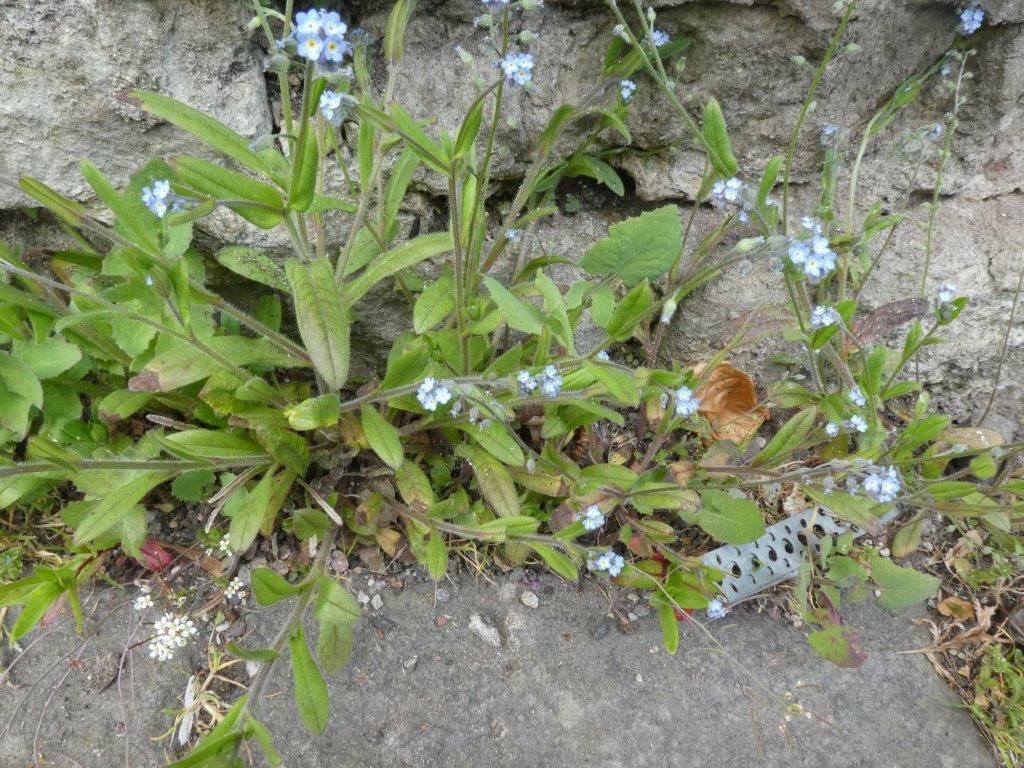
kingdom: Plantae
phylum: Tracheophyta
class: Magnoliopsida
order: Boraginales
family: Boraginaceae
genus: Myosotis
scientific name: Myosotis sylvatica
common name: Wood forget-me-not
